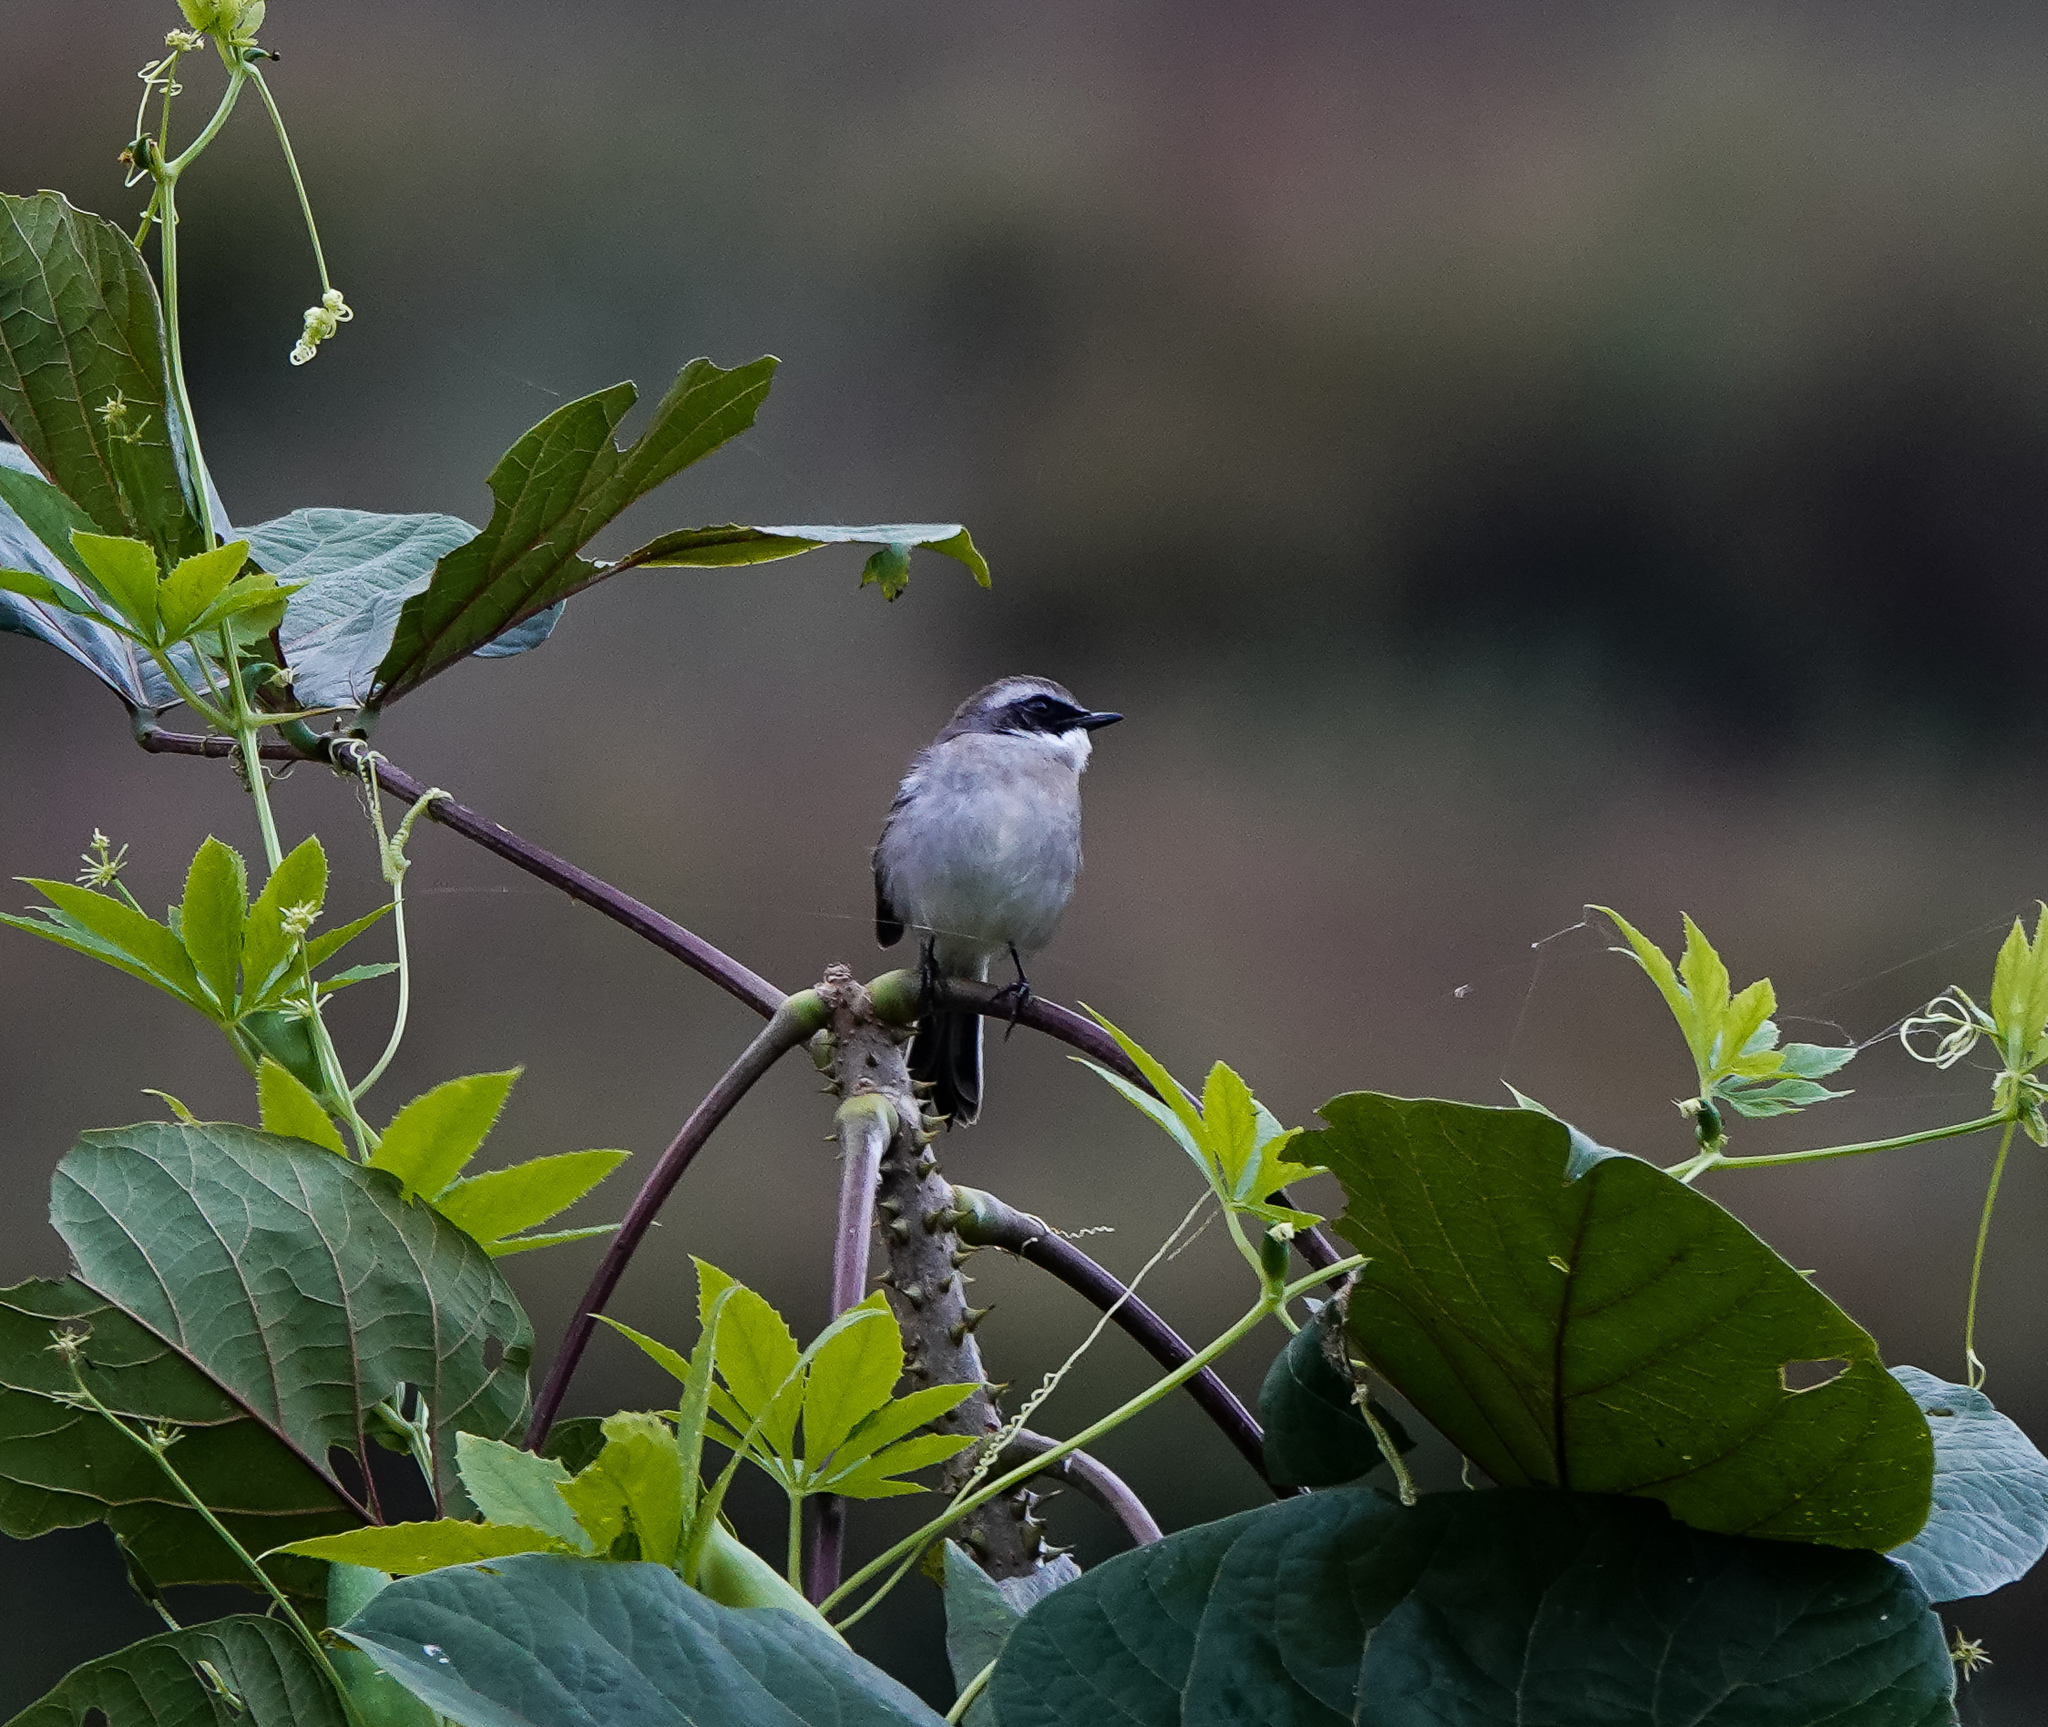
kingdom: Animalia
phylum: Chordata
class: Aves
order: Passeriformes
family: Muscicapidae
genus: Saxicola
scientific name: Saxicola ferreus
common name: Grey bush chat
